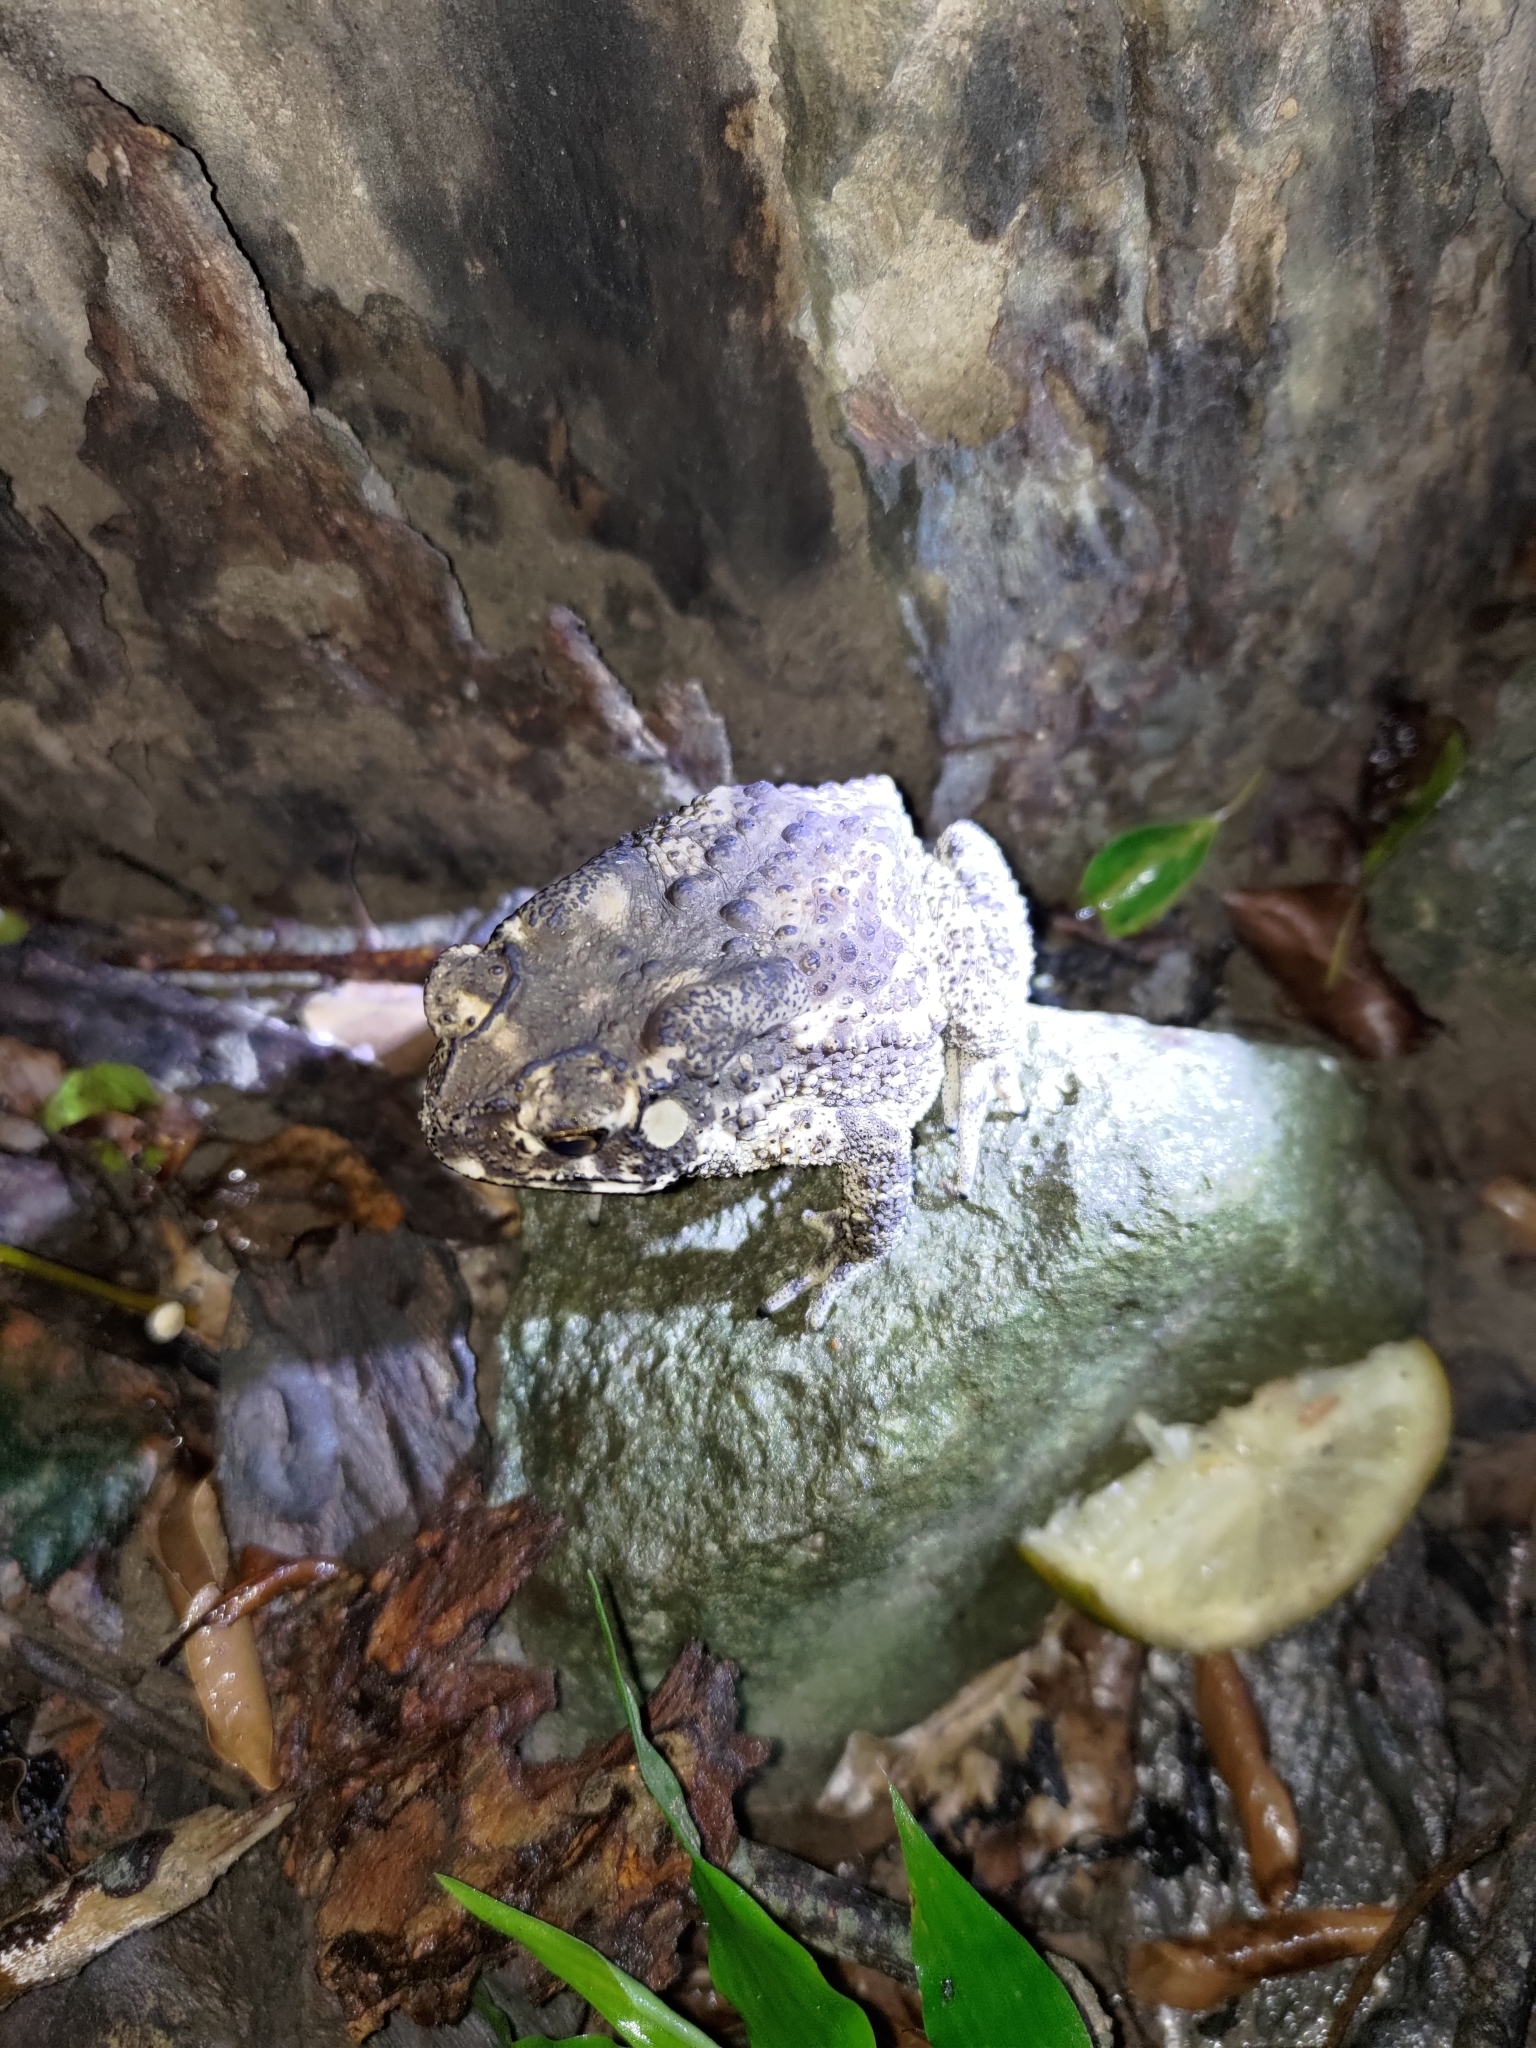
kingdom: Animalia
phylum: Chordata
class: Amphibia
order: Anura
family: Bufonidae
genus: Duttaphrynus
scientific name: Duttaphrynus melanostictus
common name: Common sunda toad
